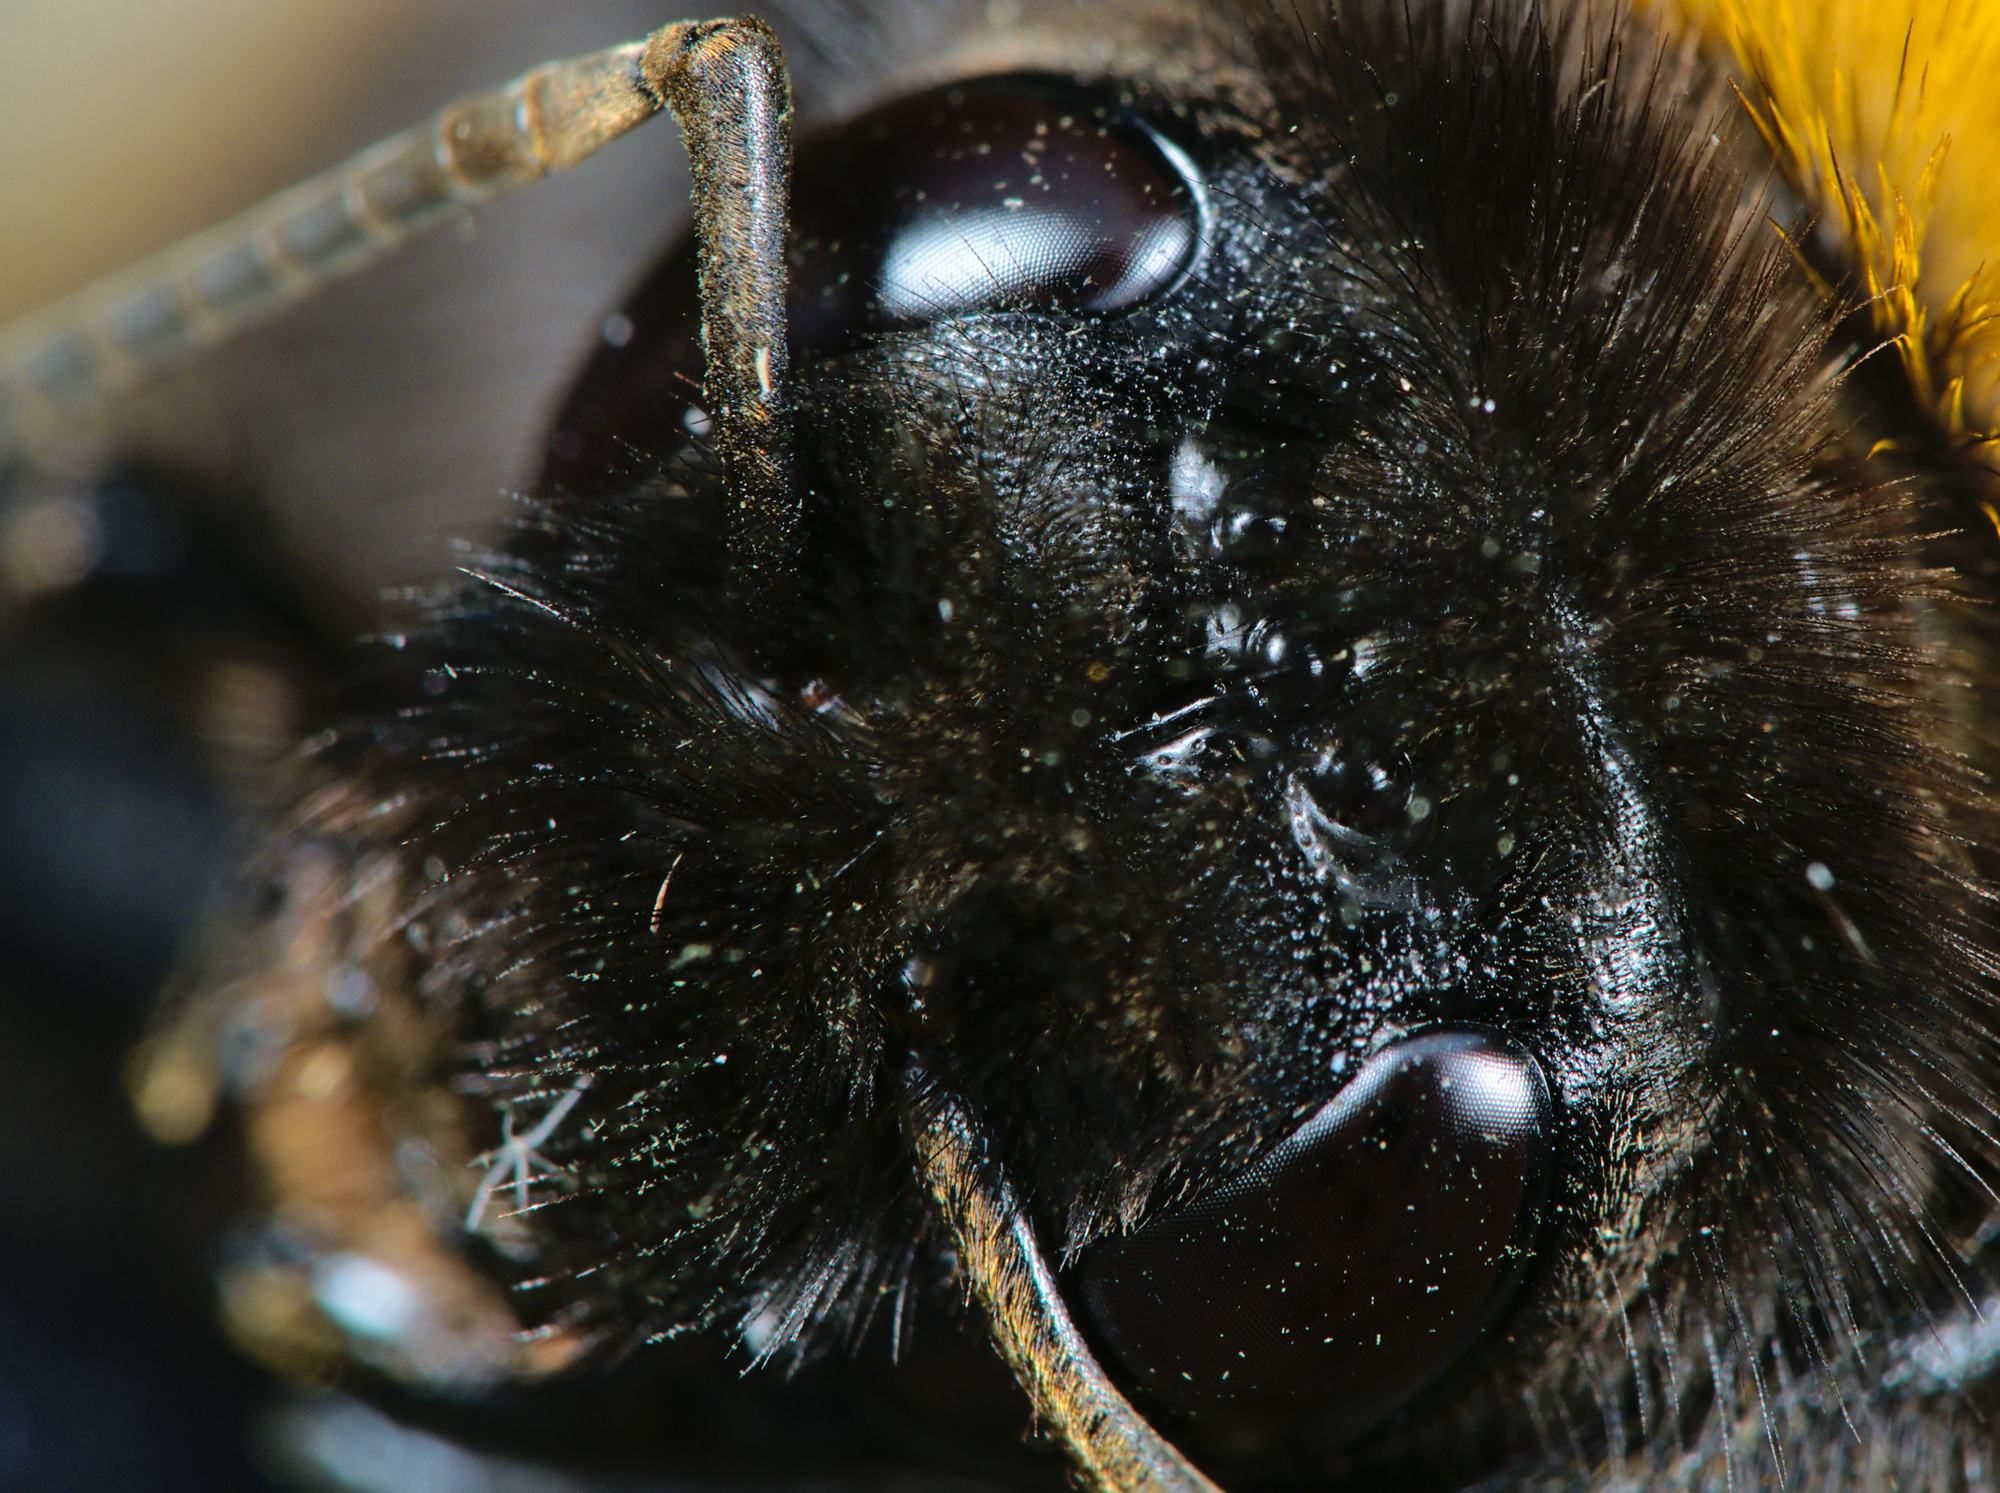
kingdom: Animalia
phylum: Arthropoda
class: Insecta
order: Hymenoptera
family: Apidae
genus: Bombus
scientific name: Bombus terrestris
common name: Buff-tailed bumblebee
